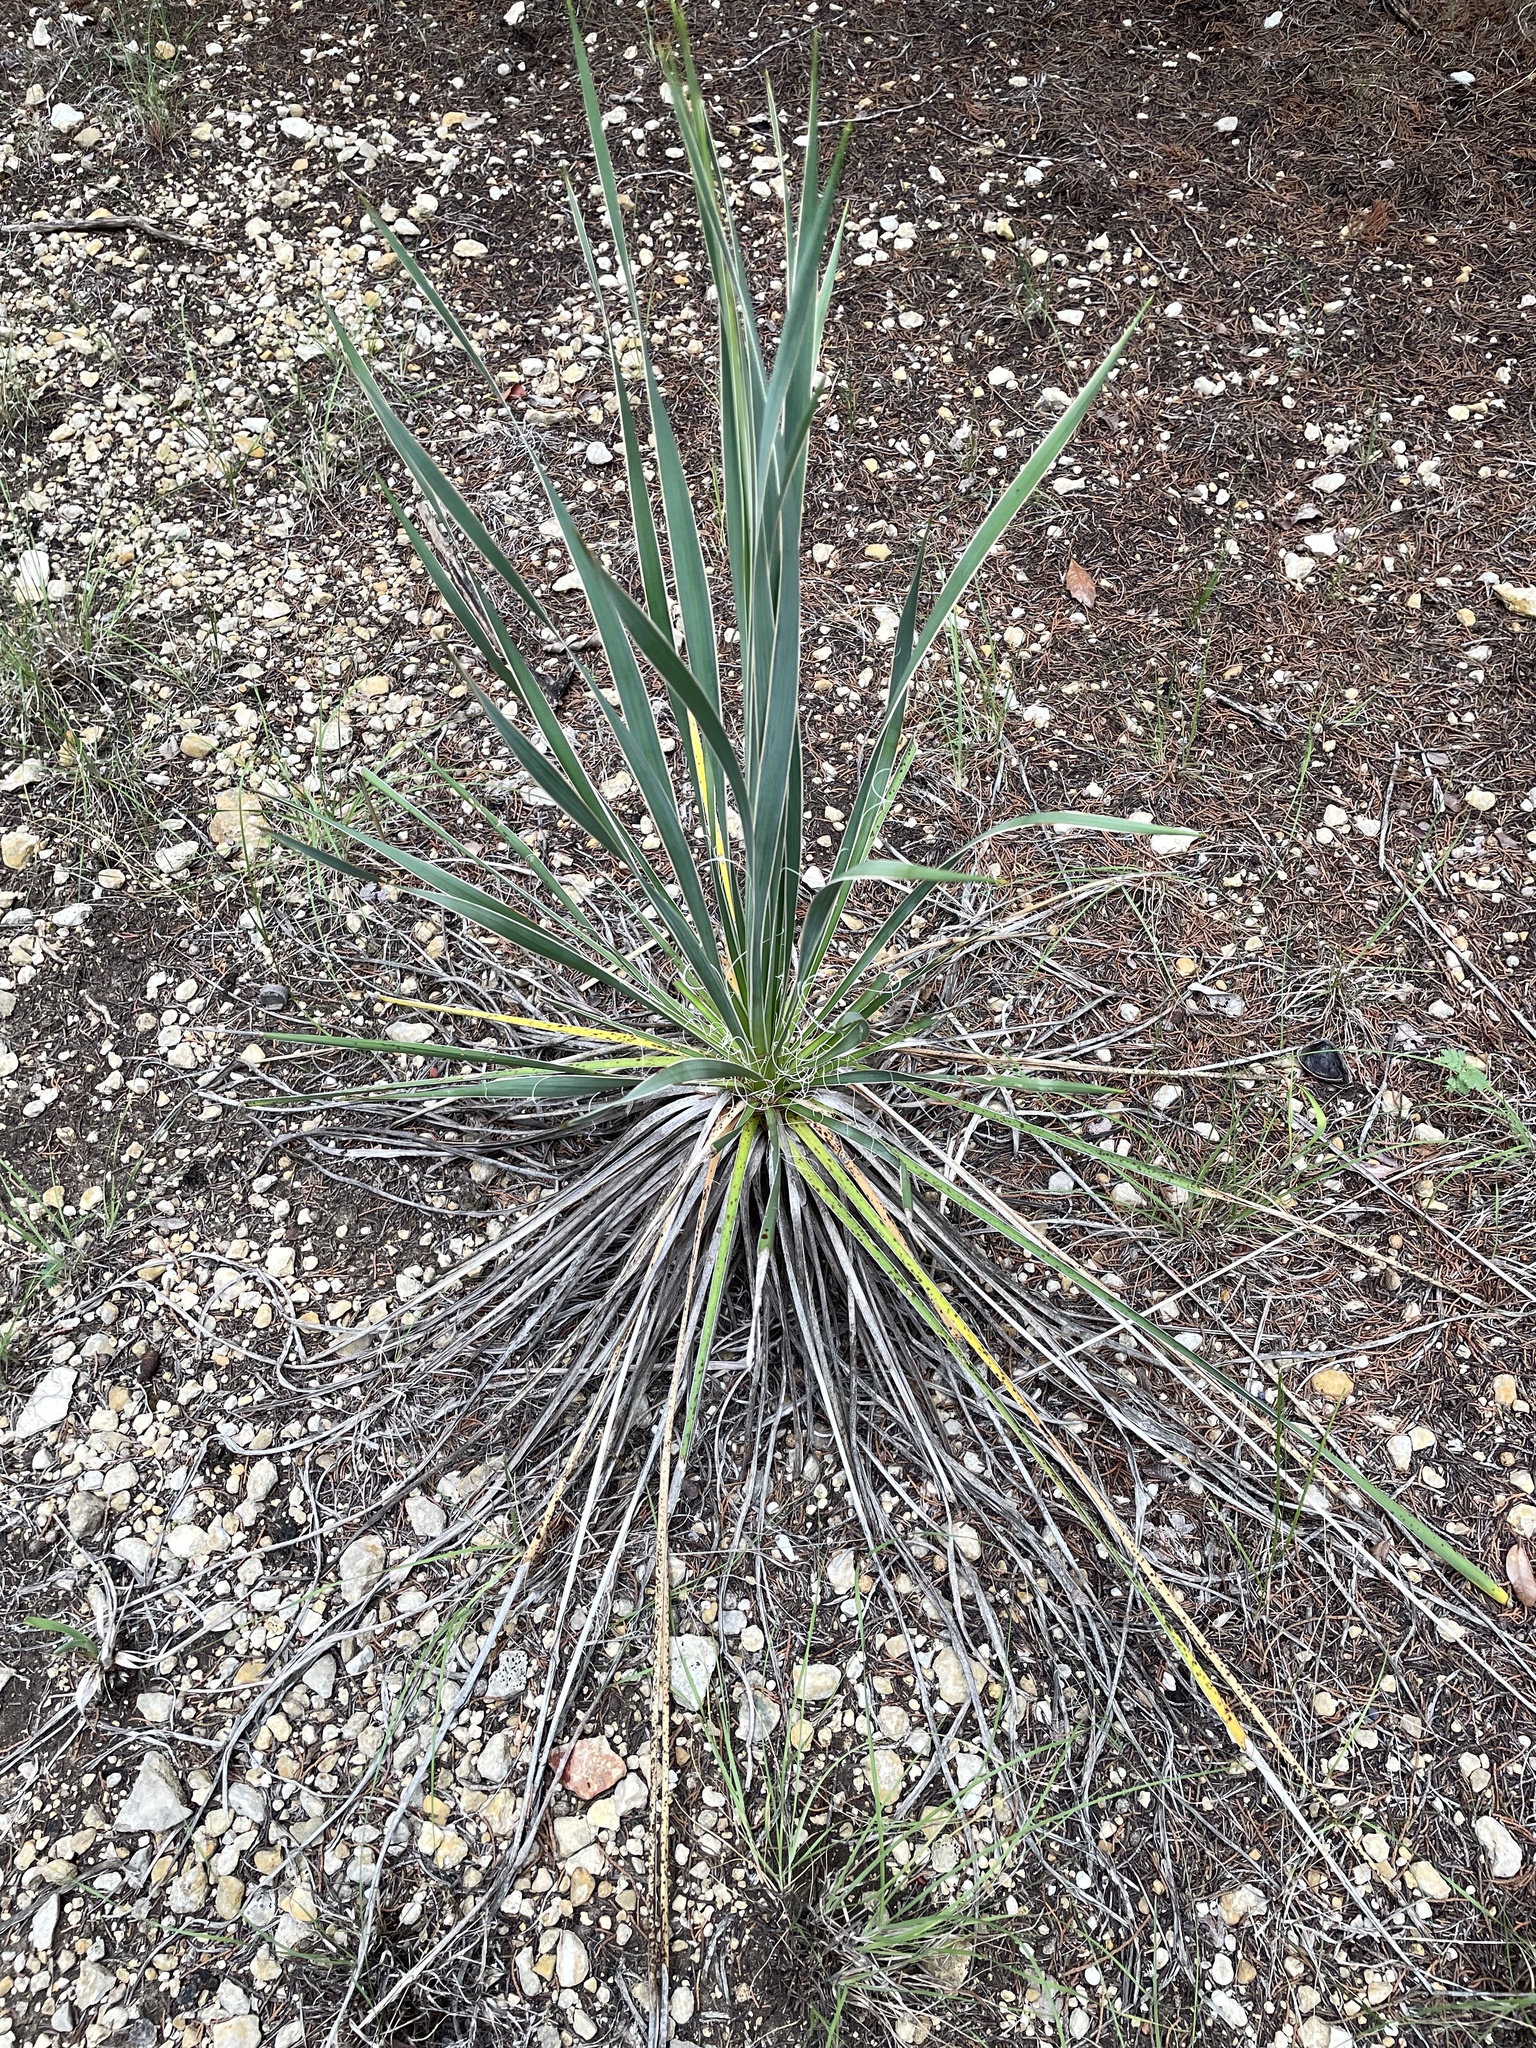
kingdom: Plantae
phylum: Tracheophyta
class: Liliopsida
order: Asparagales
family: Asparagaceae
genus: Yucca
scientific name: Yucca arkansana
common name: Arkansas yucca
